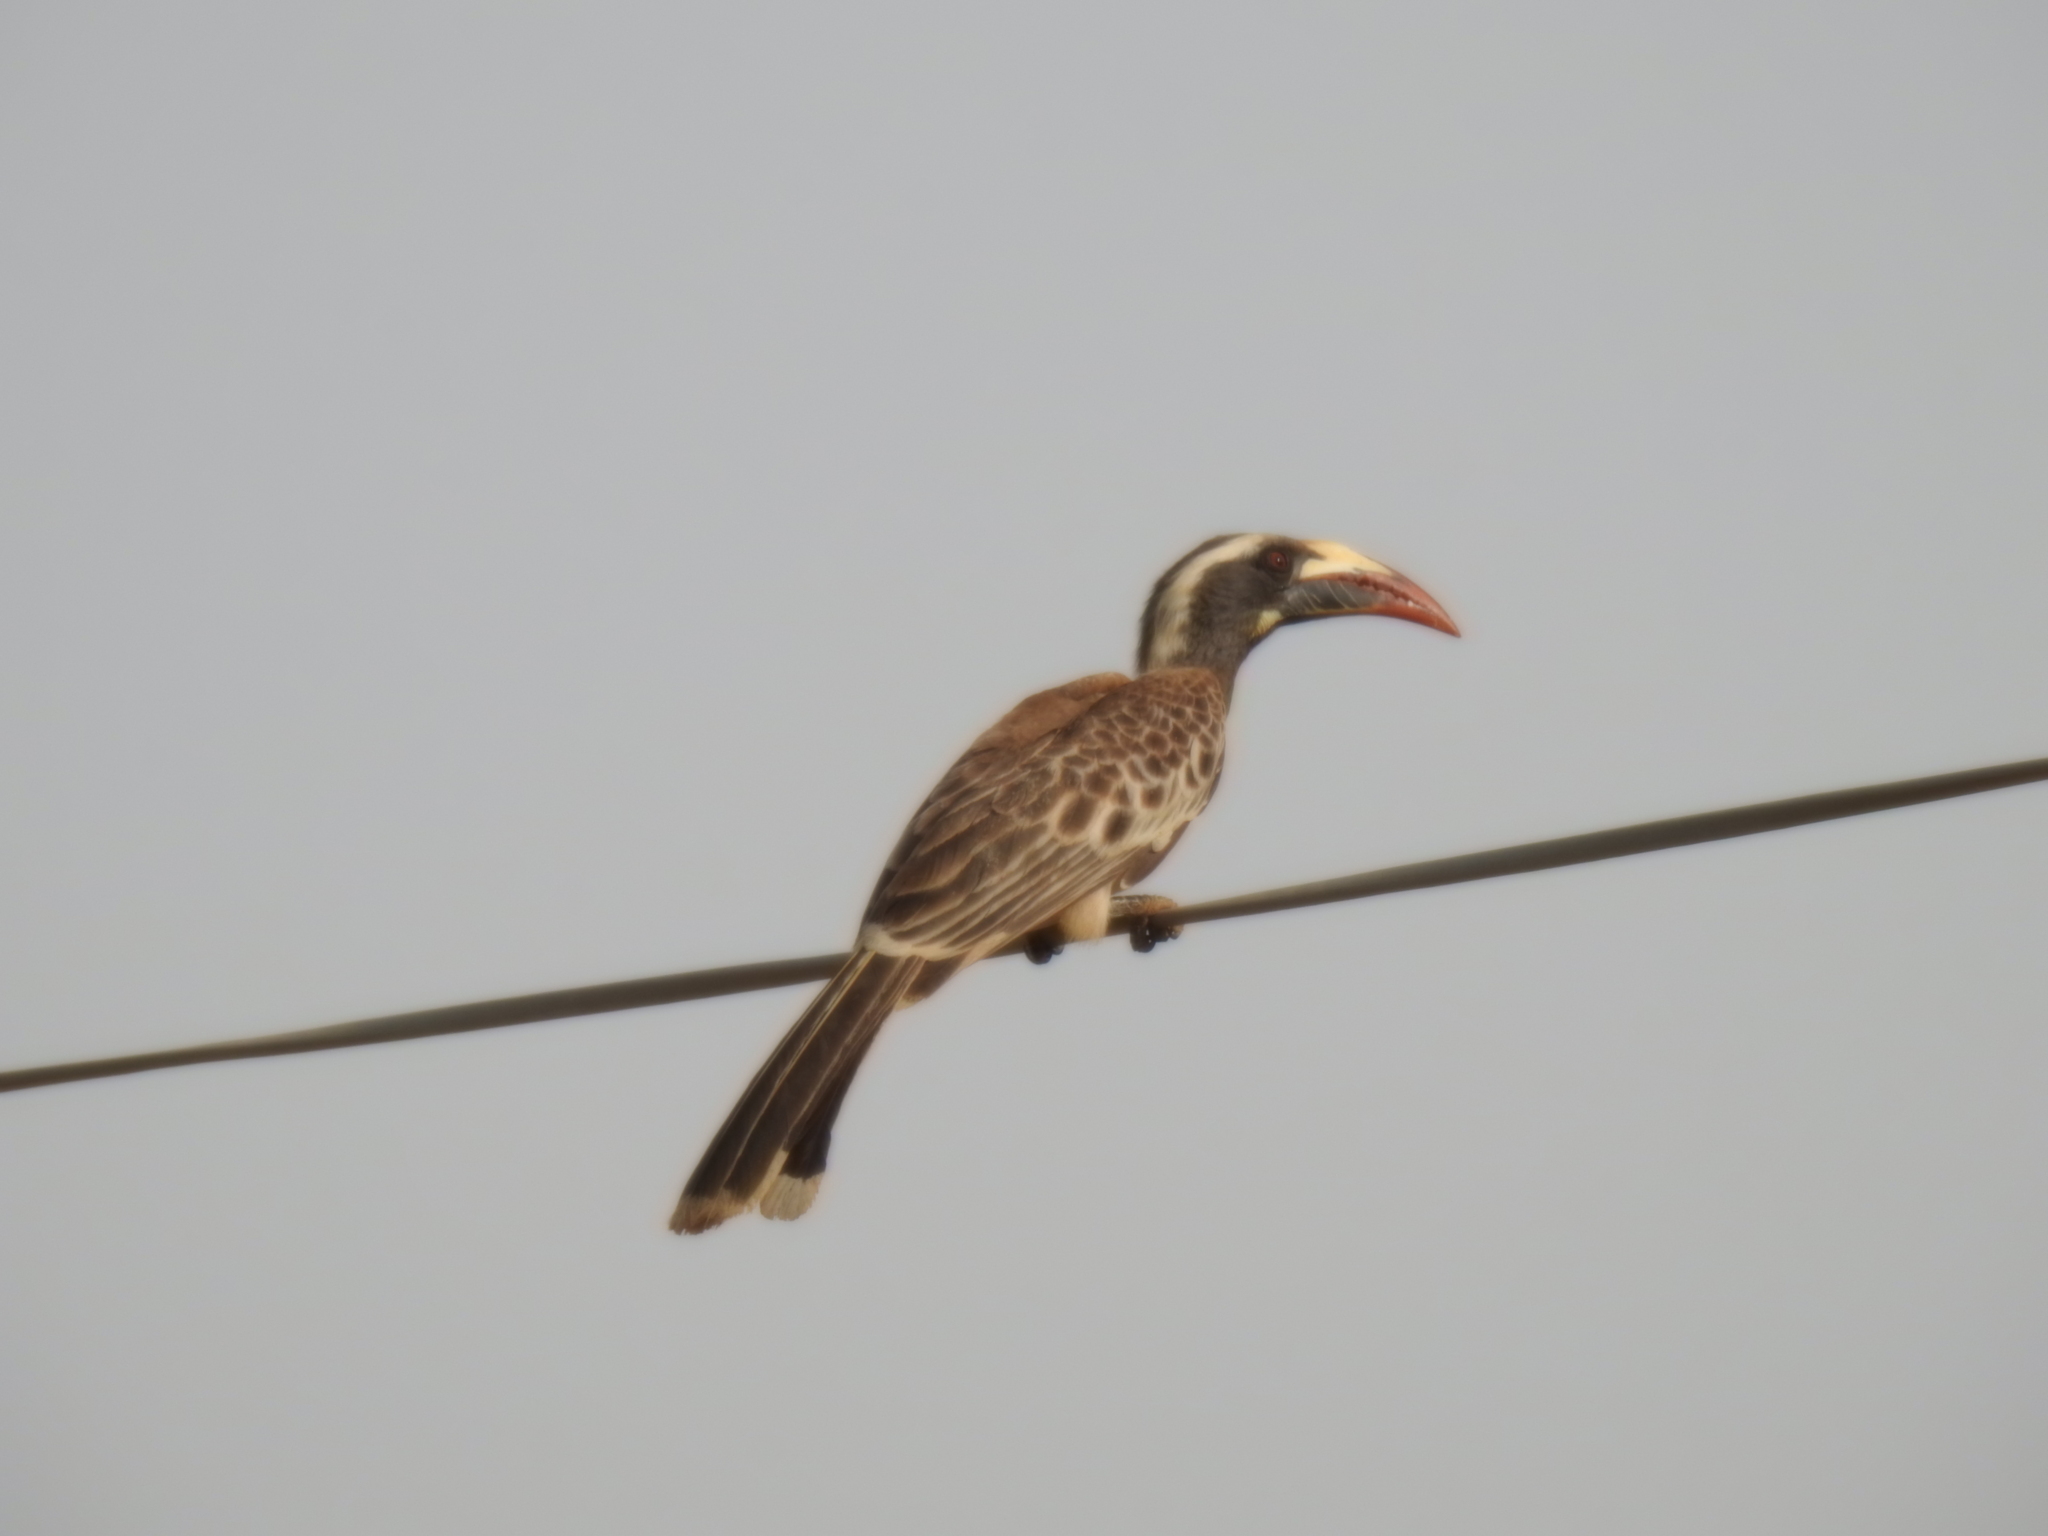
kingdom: Animalia
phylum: Chordata
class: Aves
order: Bucerotiformes
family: Bucerotidae
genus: Lophoceros
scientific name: Lophoceros nasutus
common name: African grey hornbill
